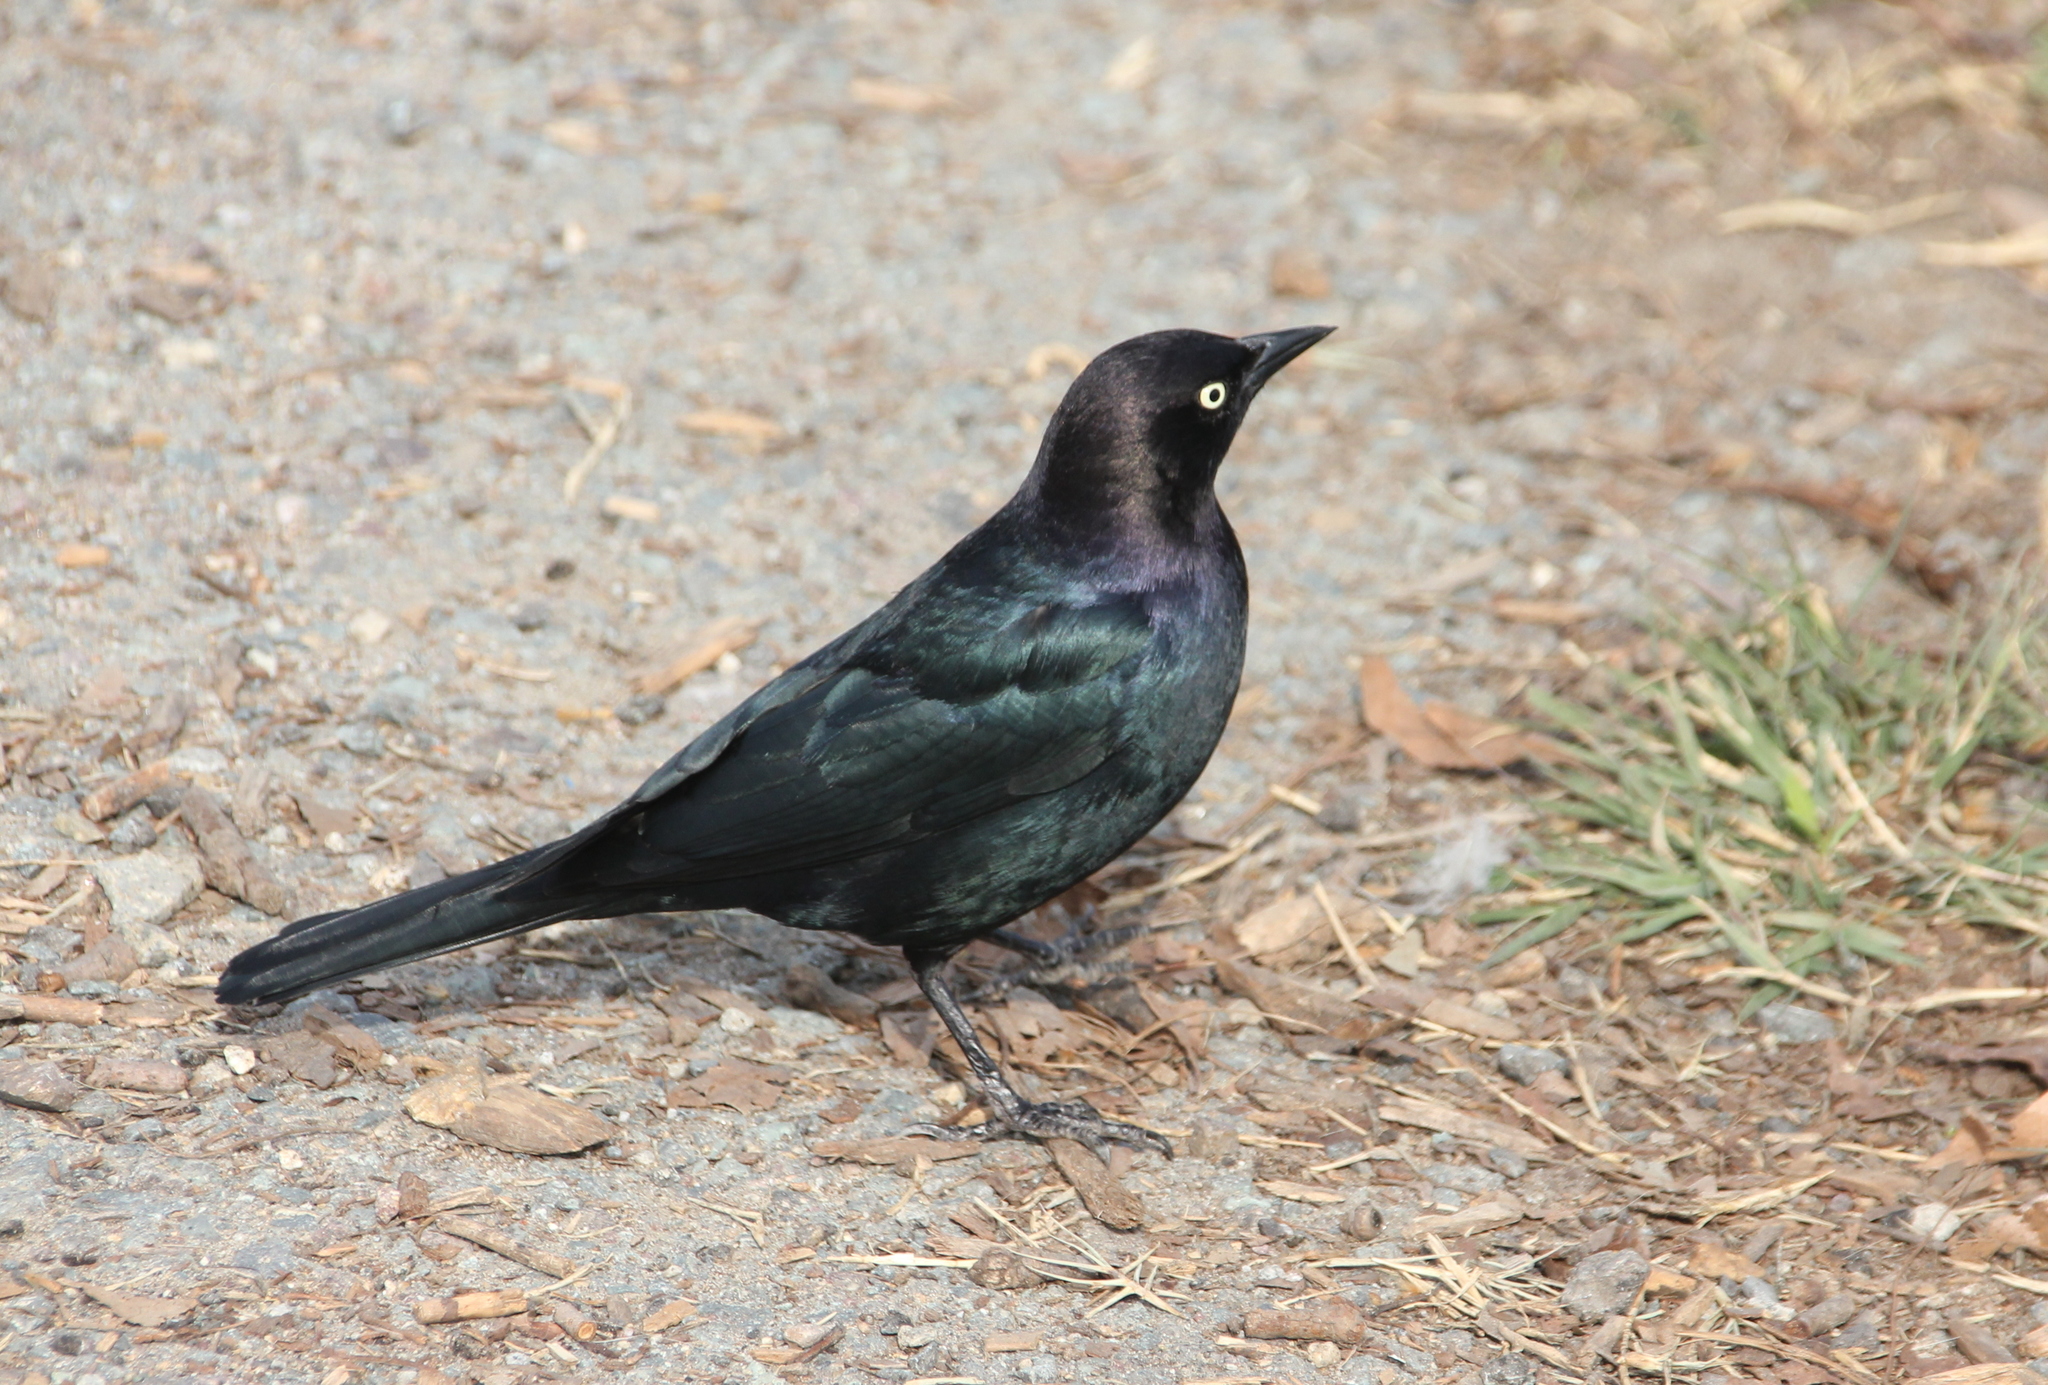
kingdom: Animalia
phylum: Chordata
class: Aves
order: Passeriformes
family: Icteridae
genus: Euphagus
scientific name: Euphagus cyanocephalus
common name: Brewer's blackbird
